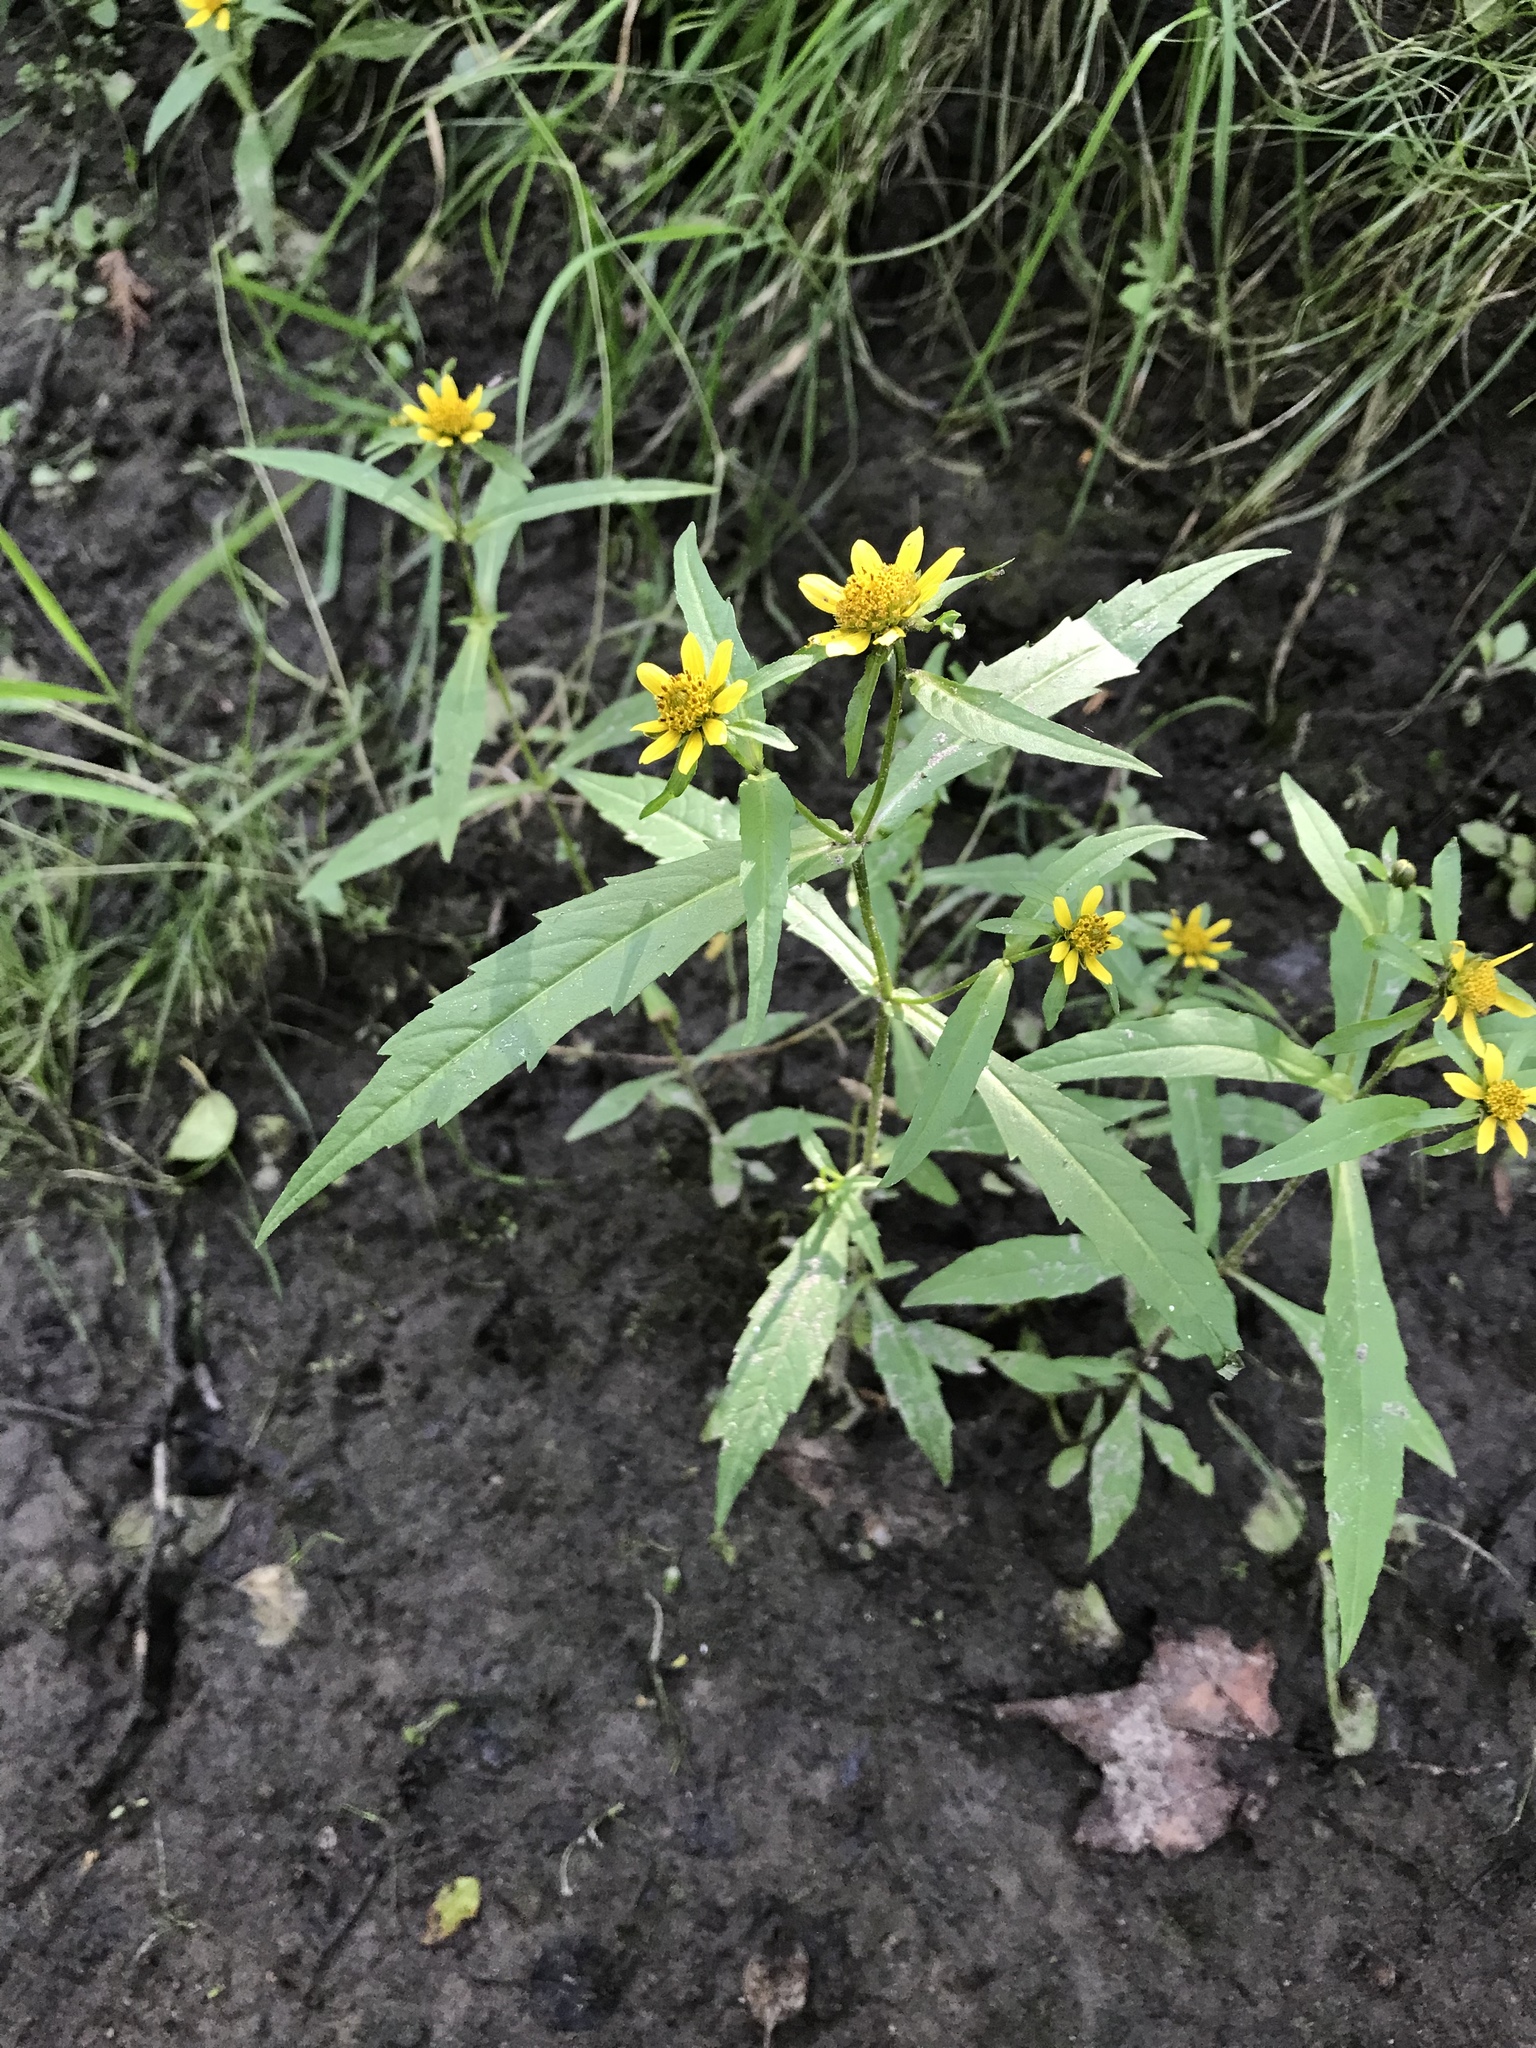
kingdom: Plantae
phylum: Tracheophyta
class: Magnoliopsida
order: Asterales
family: Asteraceae
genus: Bidens
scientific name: Bidens cernua
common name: Nodding bur-marigold
